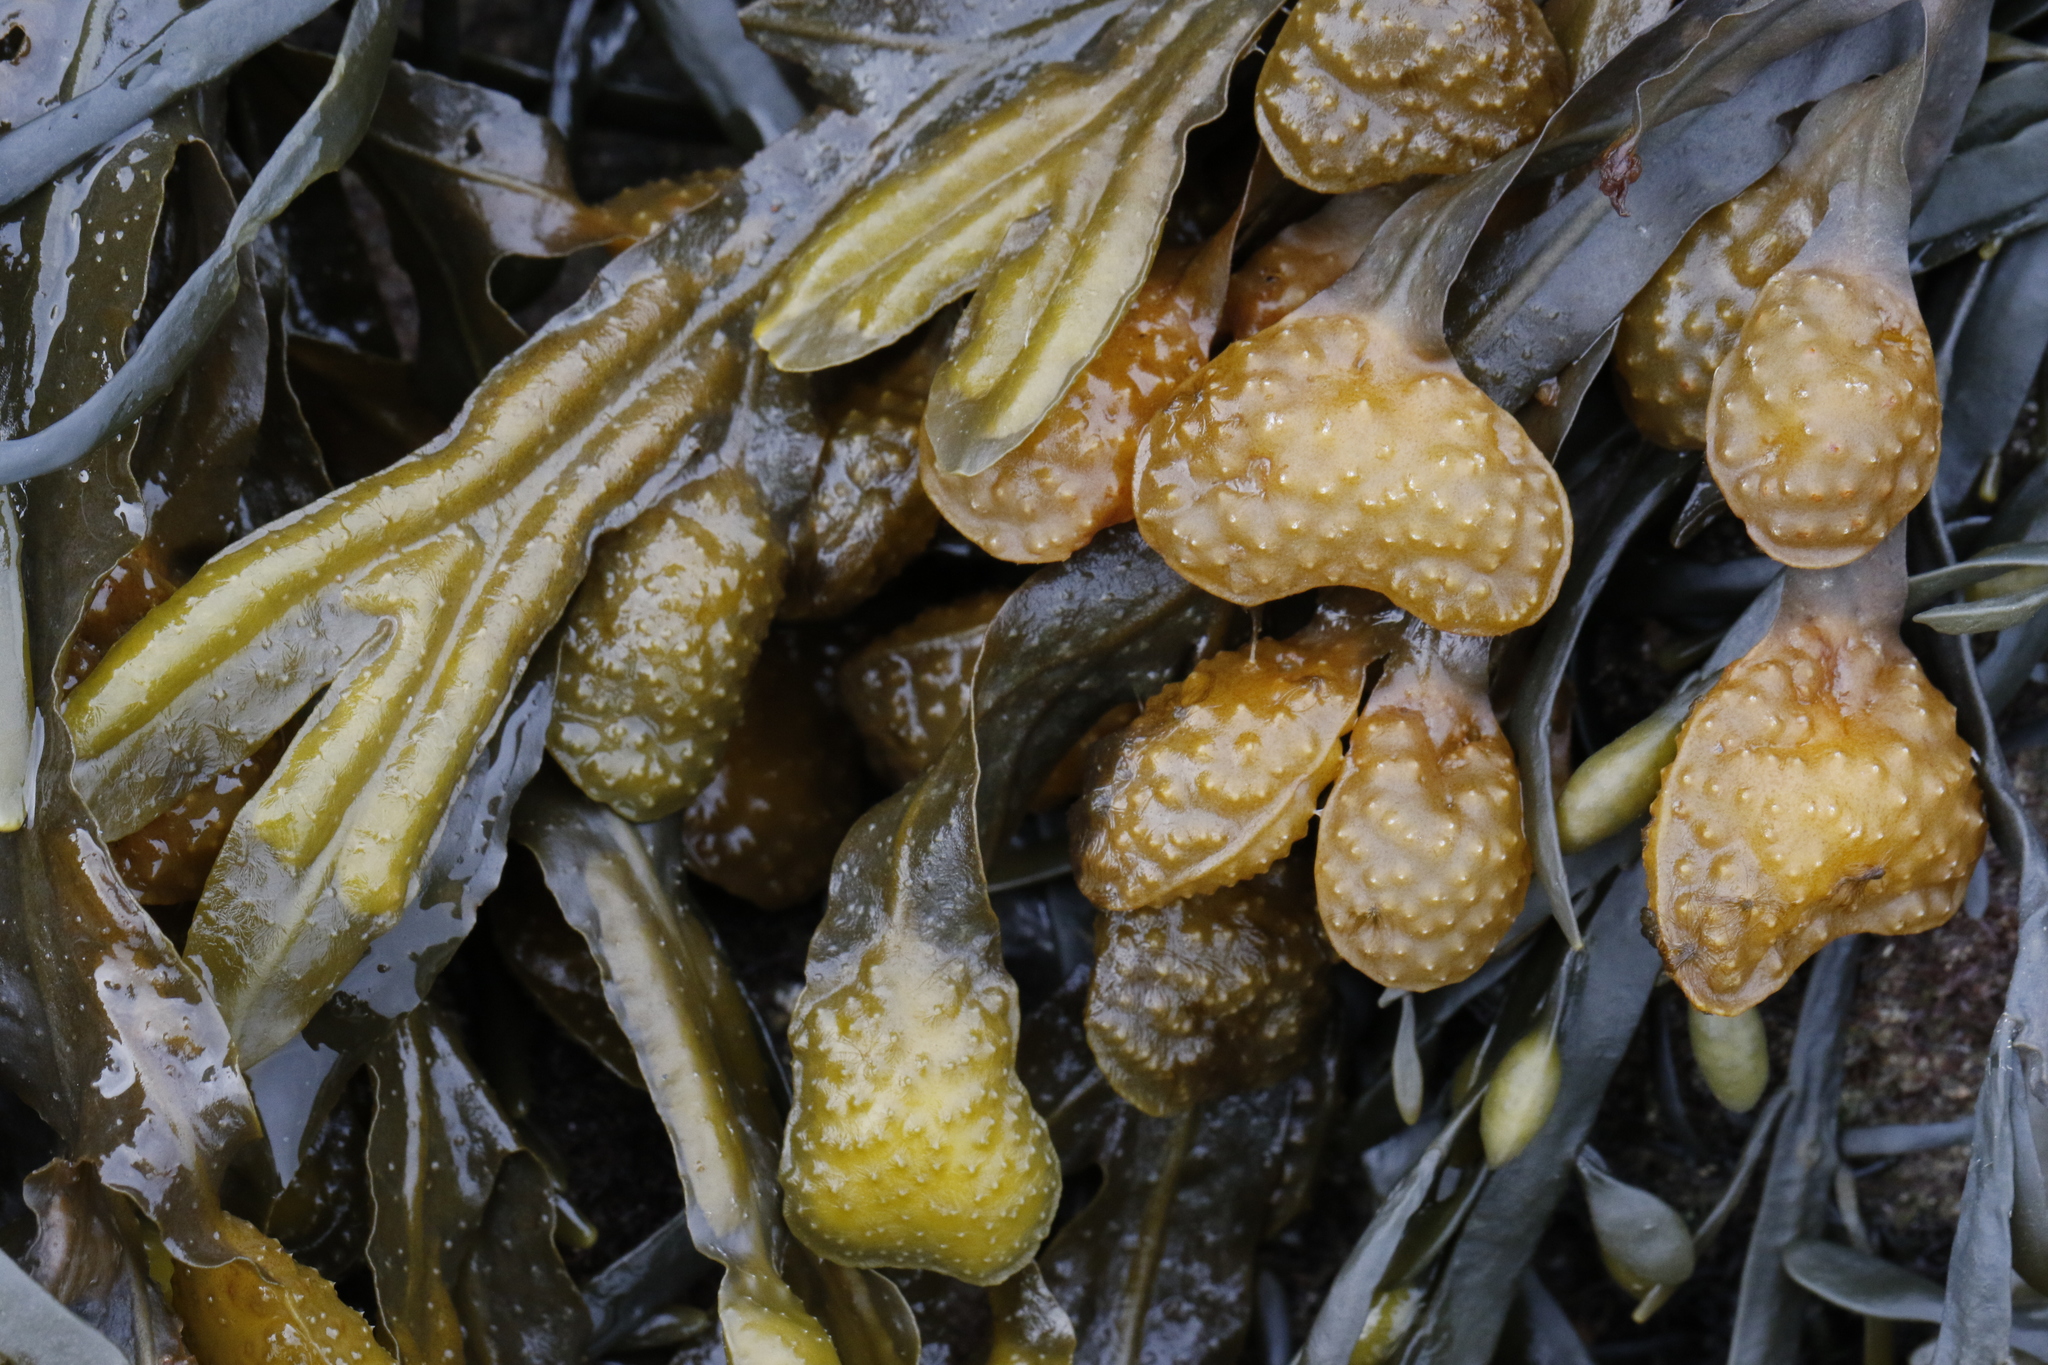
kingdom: Chromista
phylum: Ochrophyta
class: Phaeophyceae
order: Fucales
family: Fucaceae
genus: Fucus
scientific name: Fucus spiralis
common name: Spiral wrack
